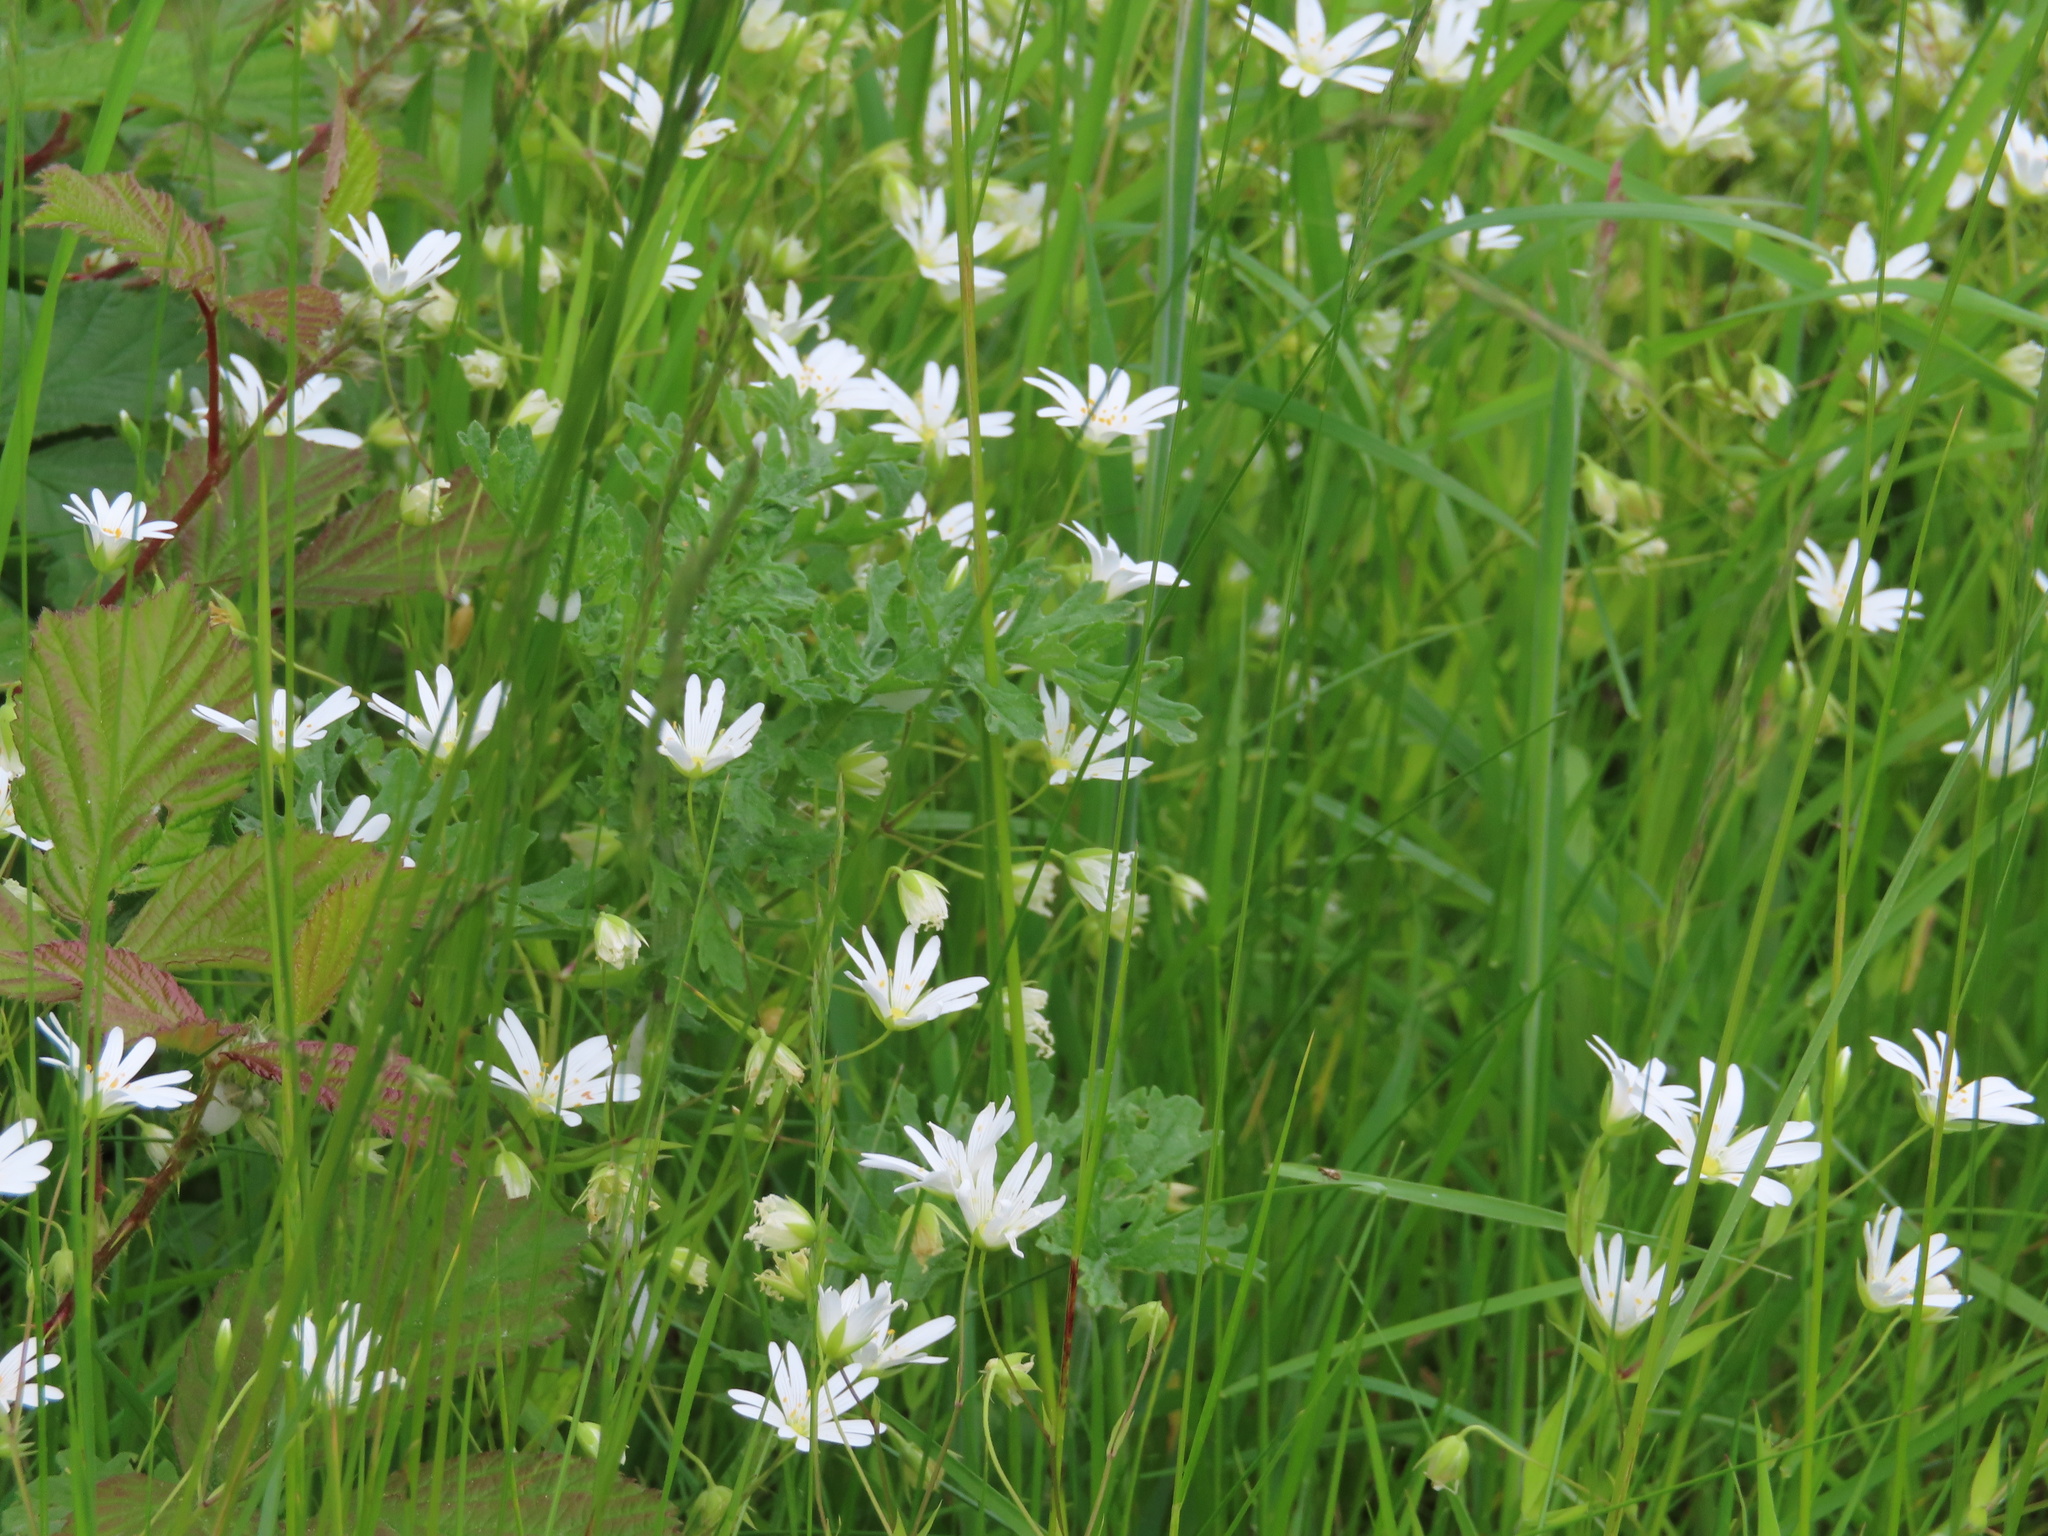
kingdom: Plantae
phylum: Tracheophyta
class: Magnoliopsida
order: Caryophyllales
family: Caryophyllaceae
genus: Rabelera
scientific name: Rabelera holostea
